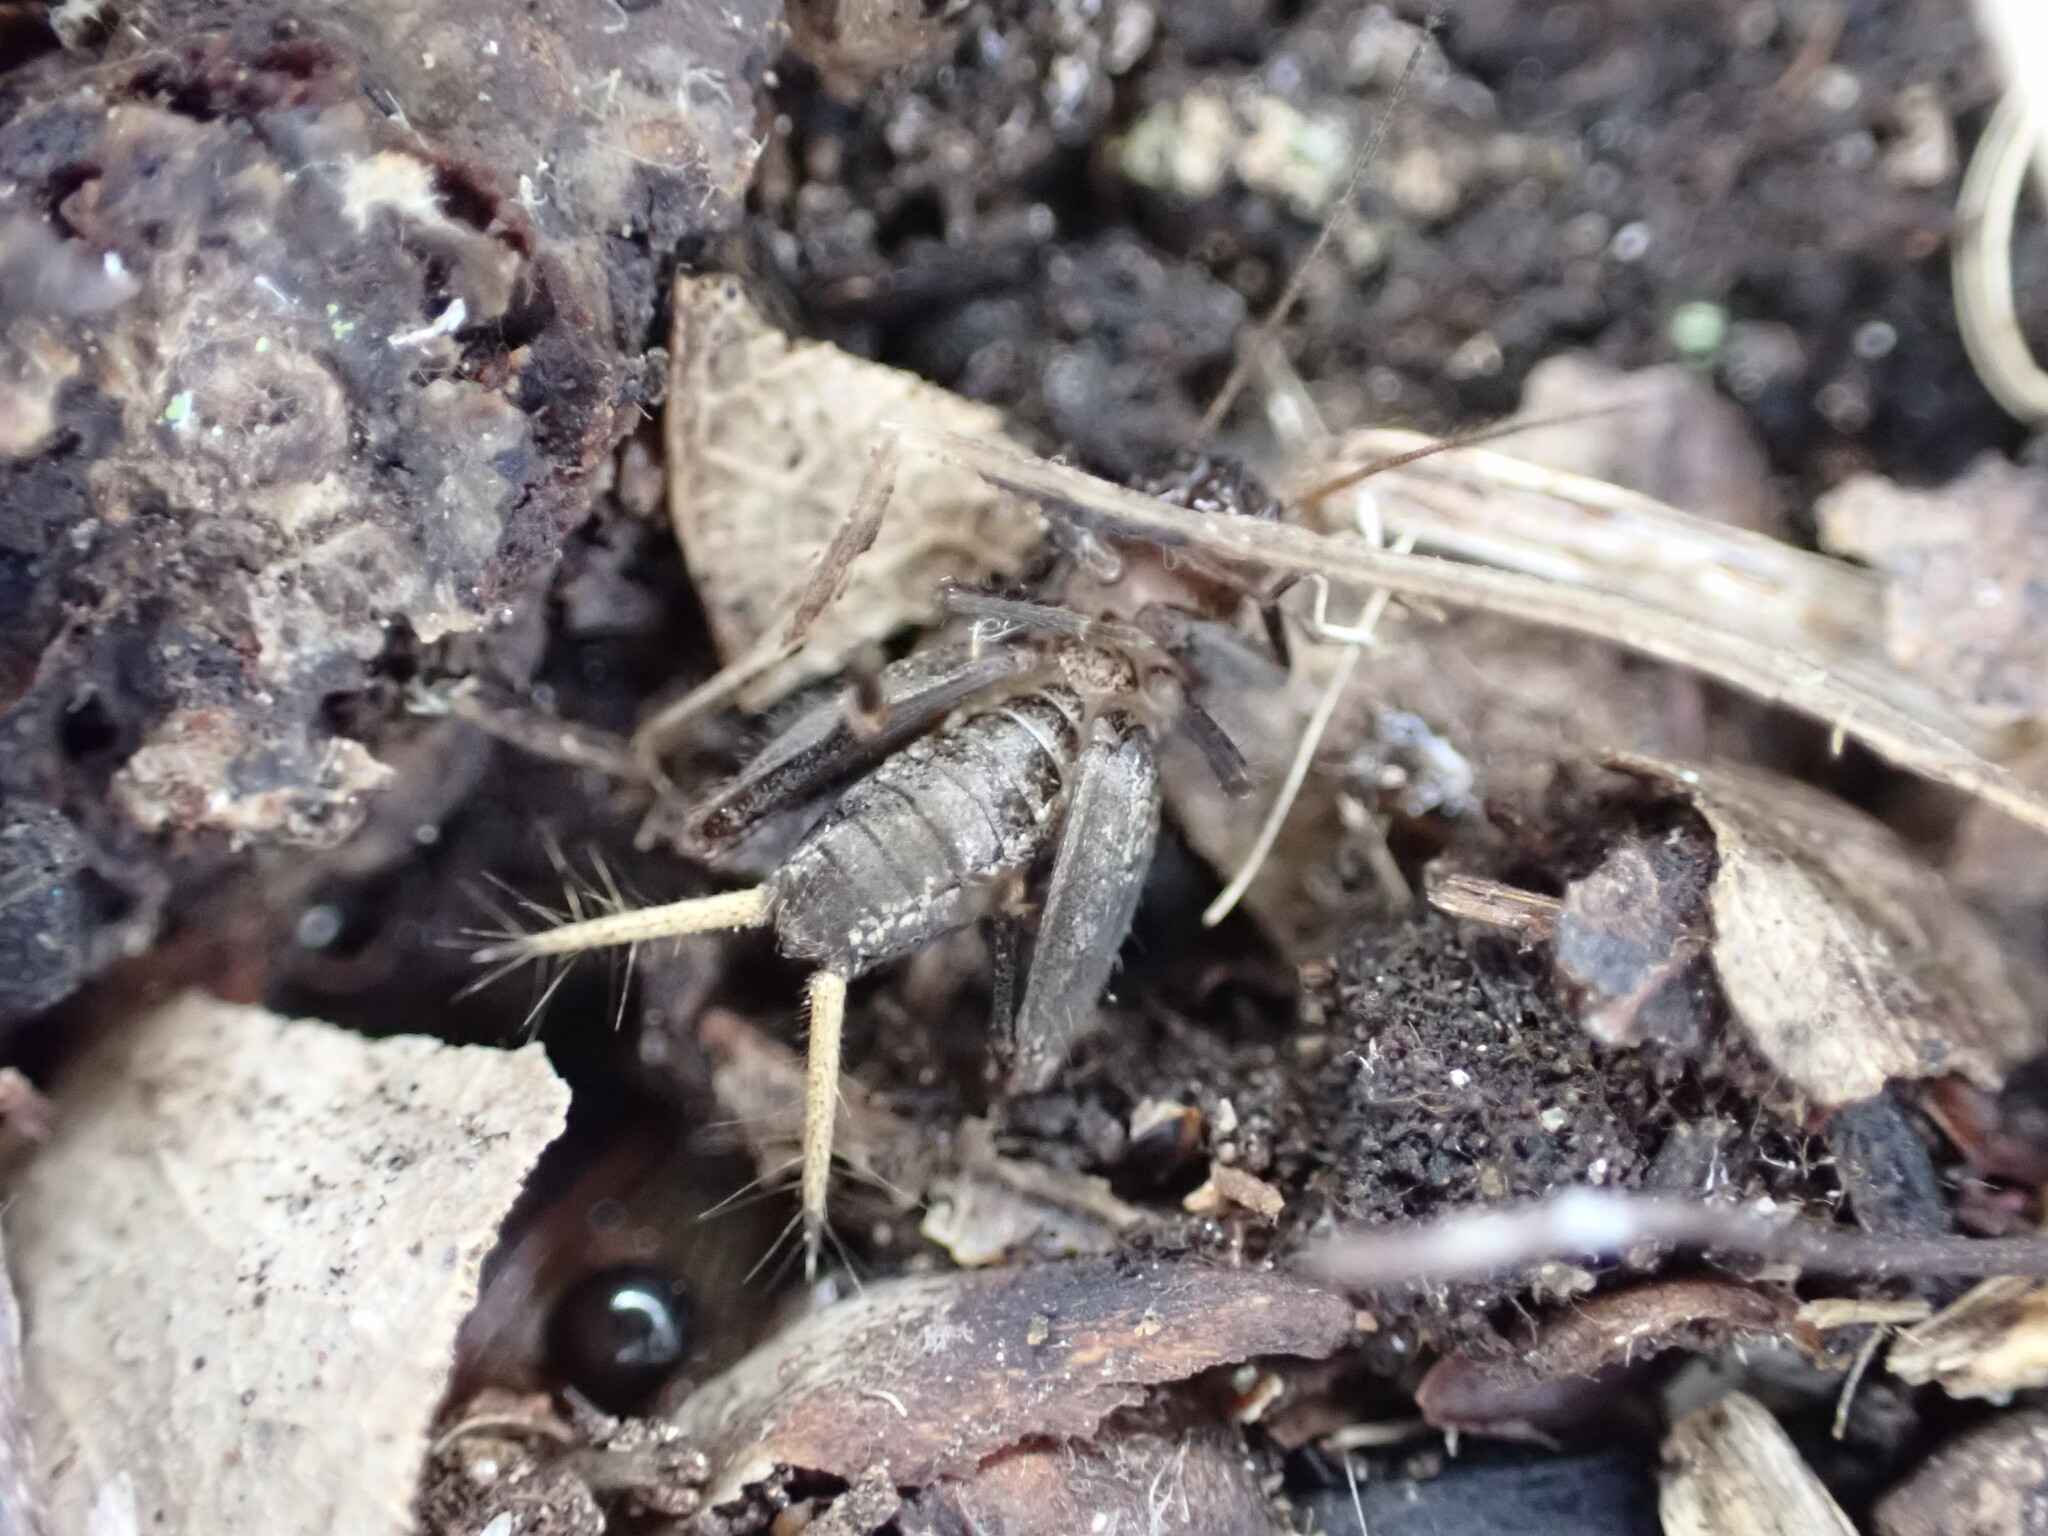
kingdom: Animalia
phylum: Arthropoda
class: Insecta
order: Orthoptera
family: Mogoplistidae
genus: Mogoplistes
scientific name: Mogoplistes brunneus
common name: Brown scale-cricket
